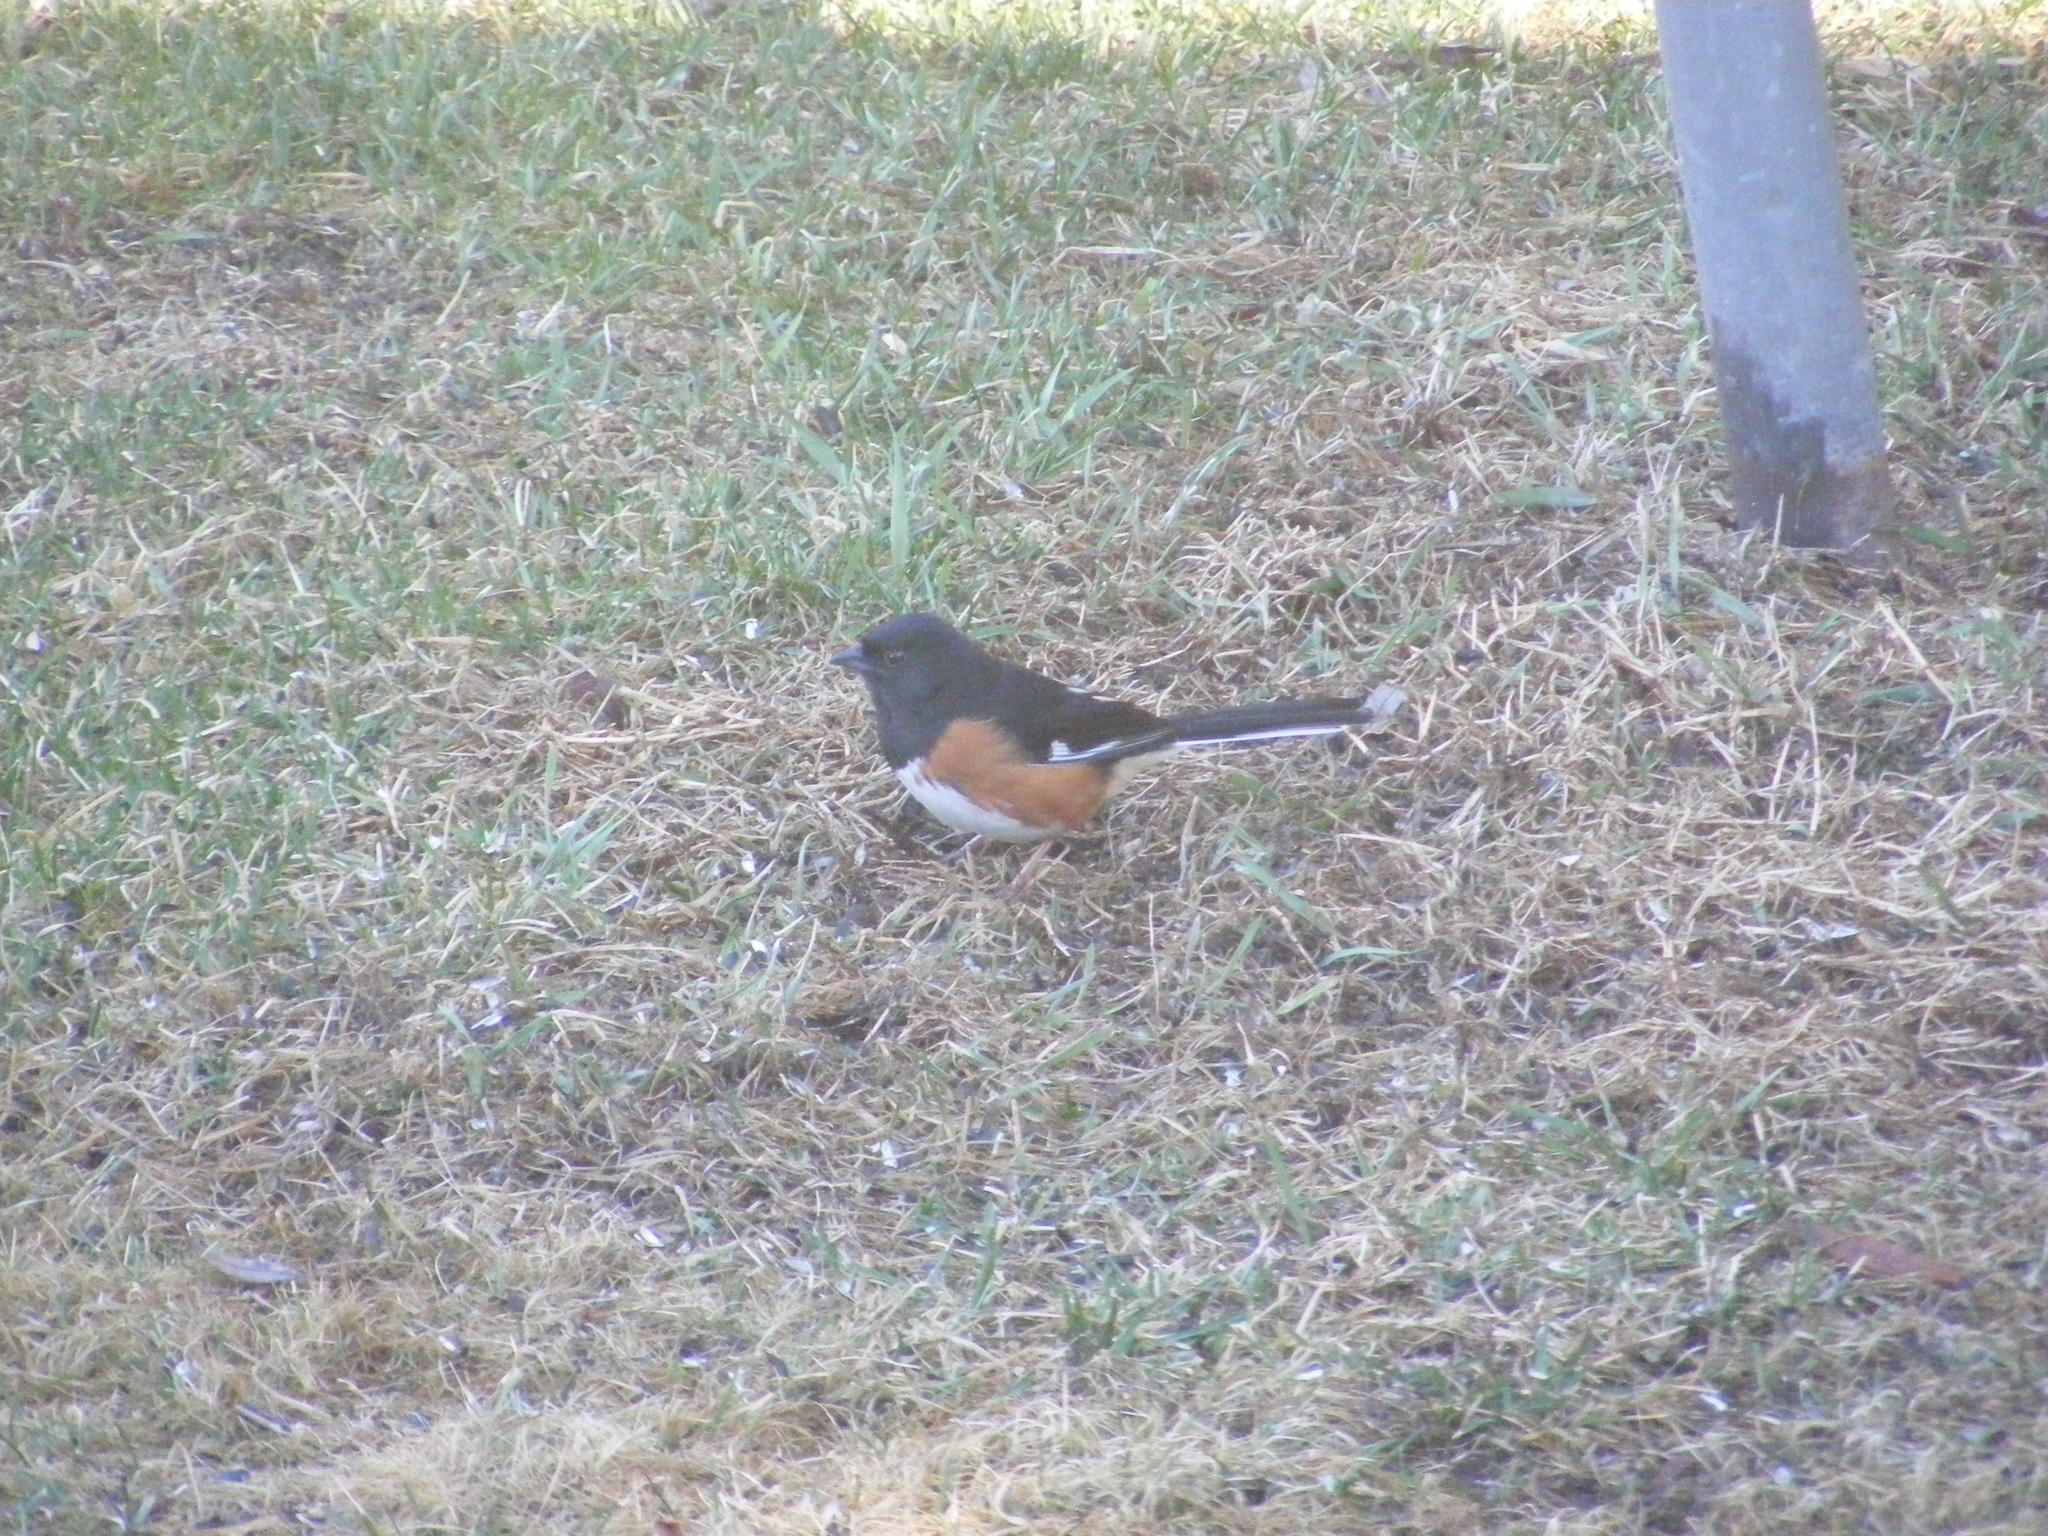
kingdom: Animalia
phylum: Chordata
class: Aves
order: Passeriformes
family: Passerellidae
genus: Pipilo
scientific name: Pipilo erythrophthalmus
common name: Eastern towhee
